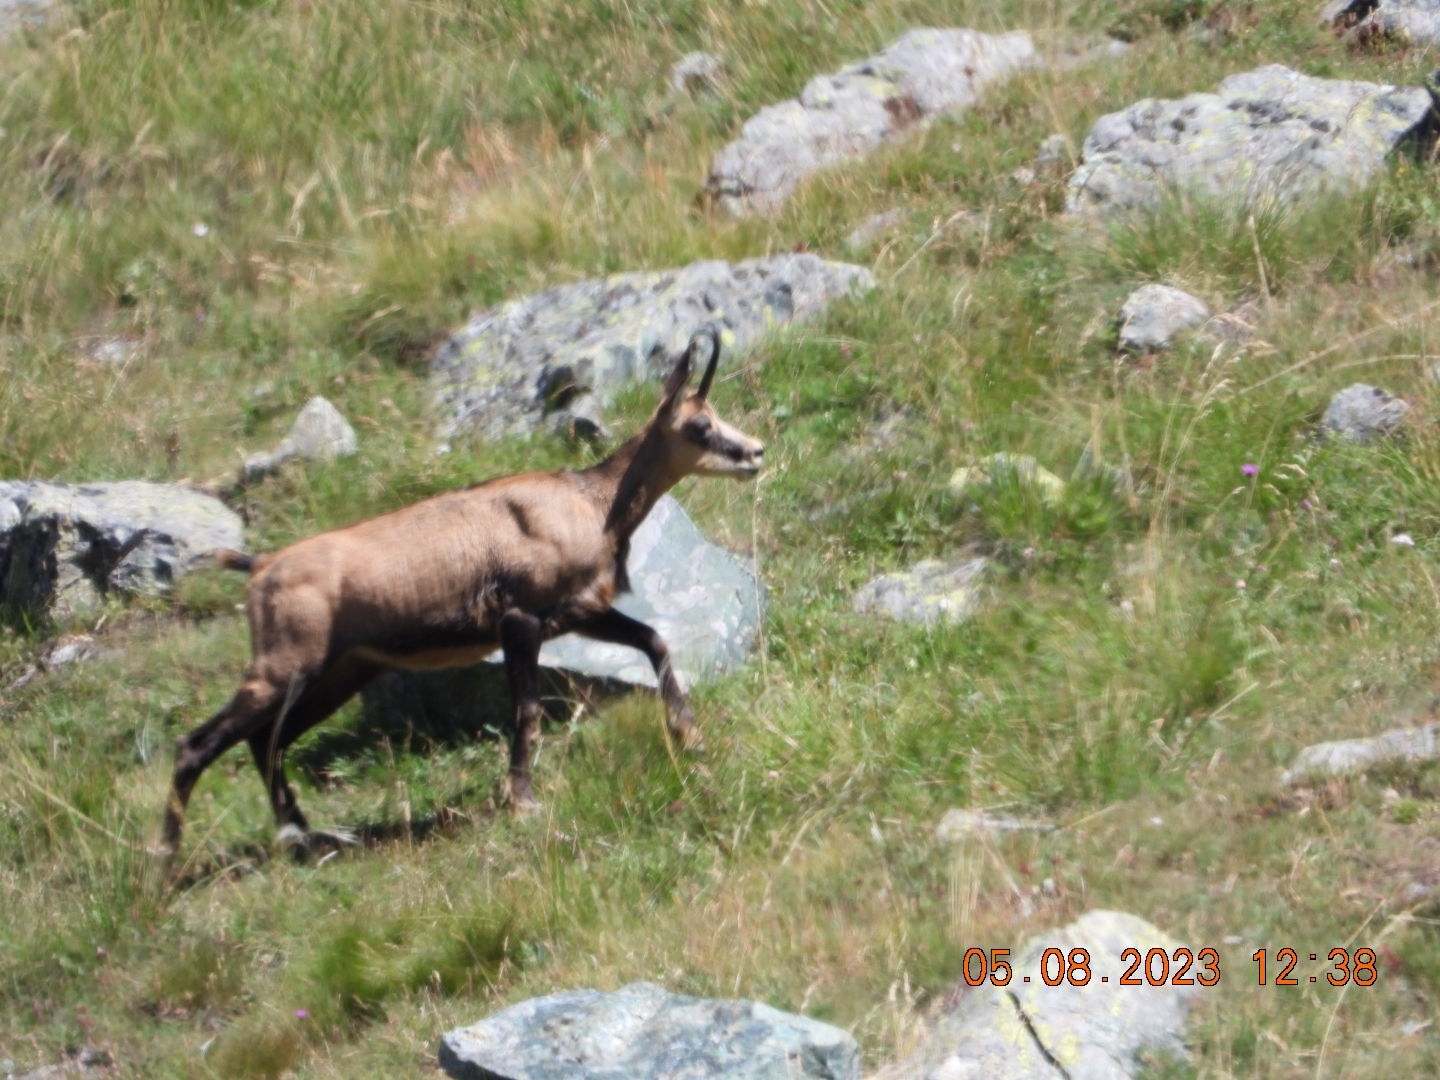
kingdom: Animalia
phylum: Chordata
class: Mammalia
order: Artiodactyla
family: Bovidae
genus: Rupicapra
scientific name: Rupicapra rupicapra
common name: Chamois
